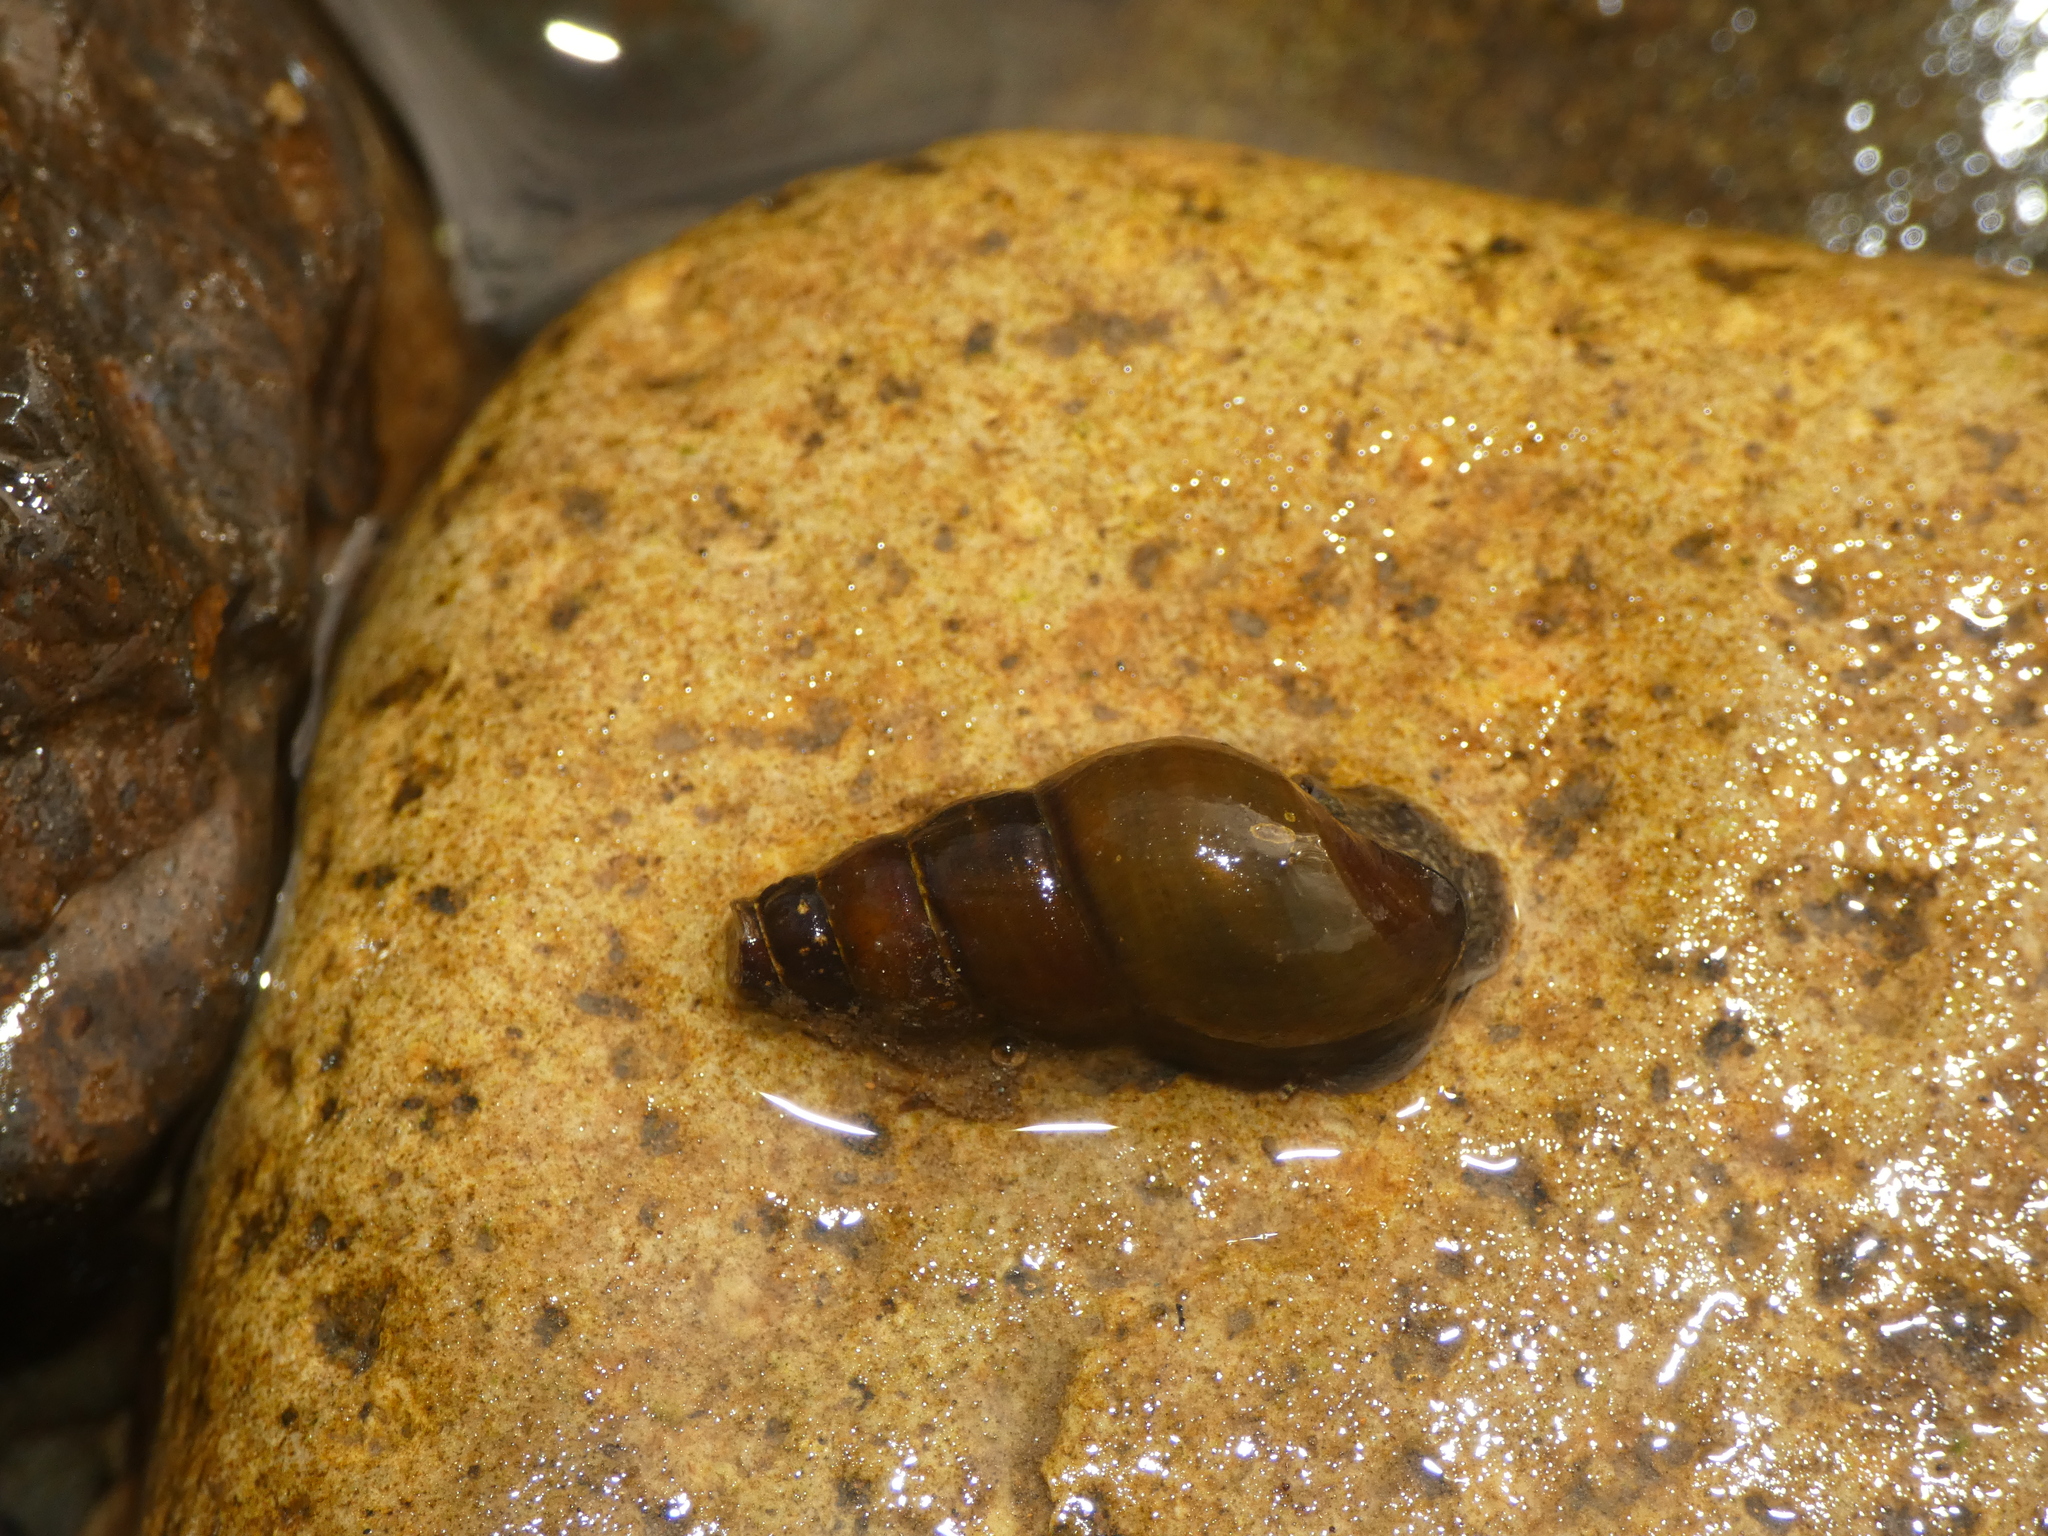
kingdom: Animalia
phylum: Mollusca
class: Gastropoda
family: Semisulcospiridae
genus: Juga
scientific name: Juga plicifera
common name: Pleated juga
